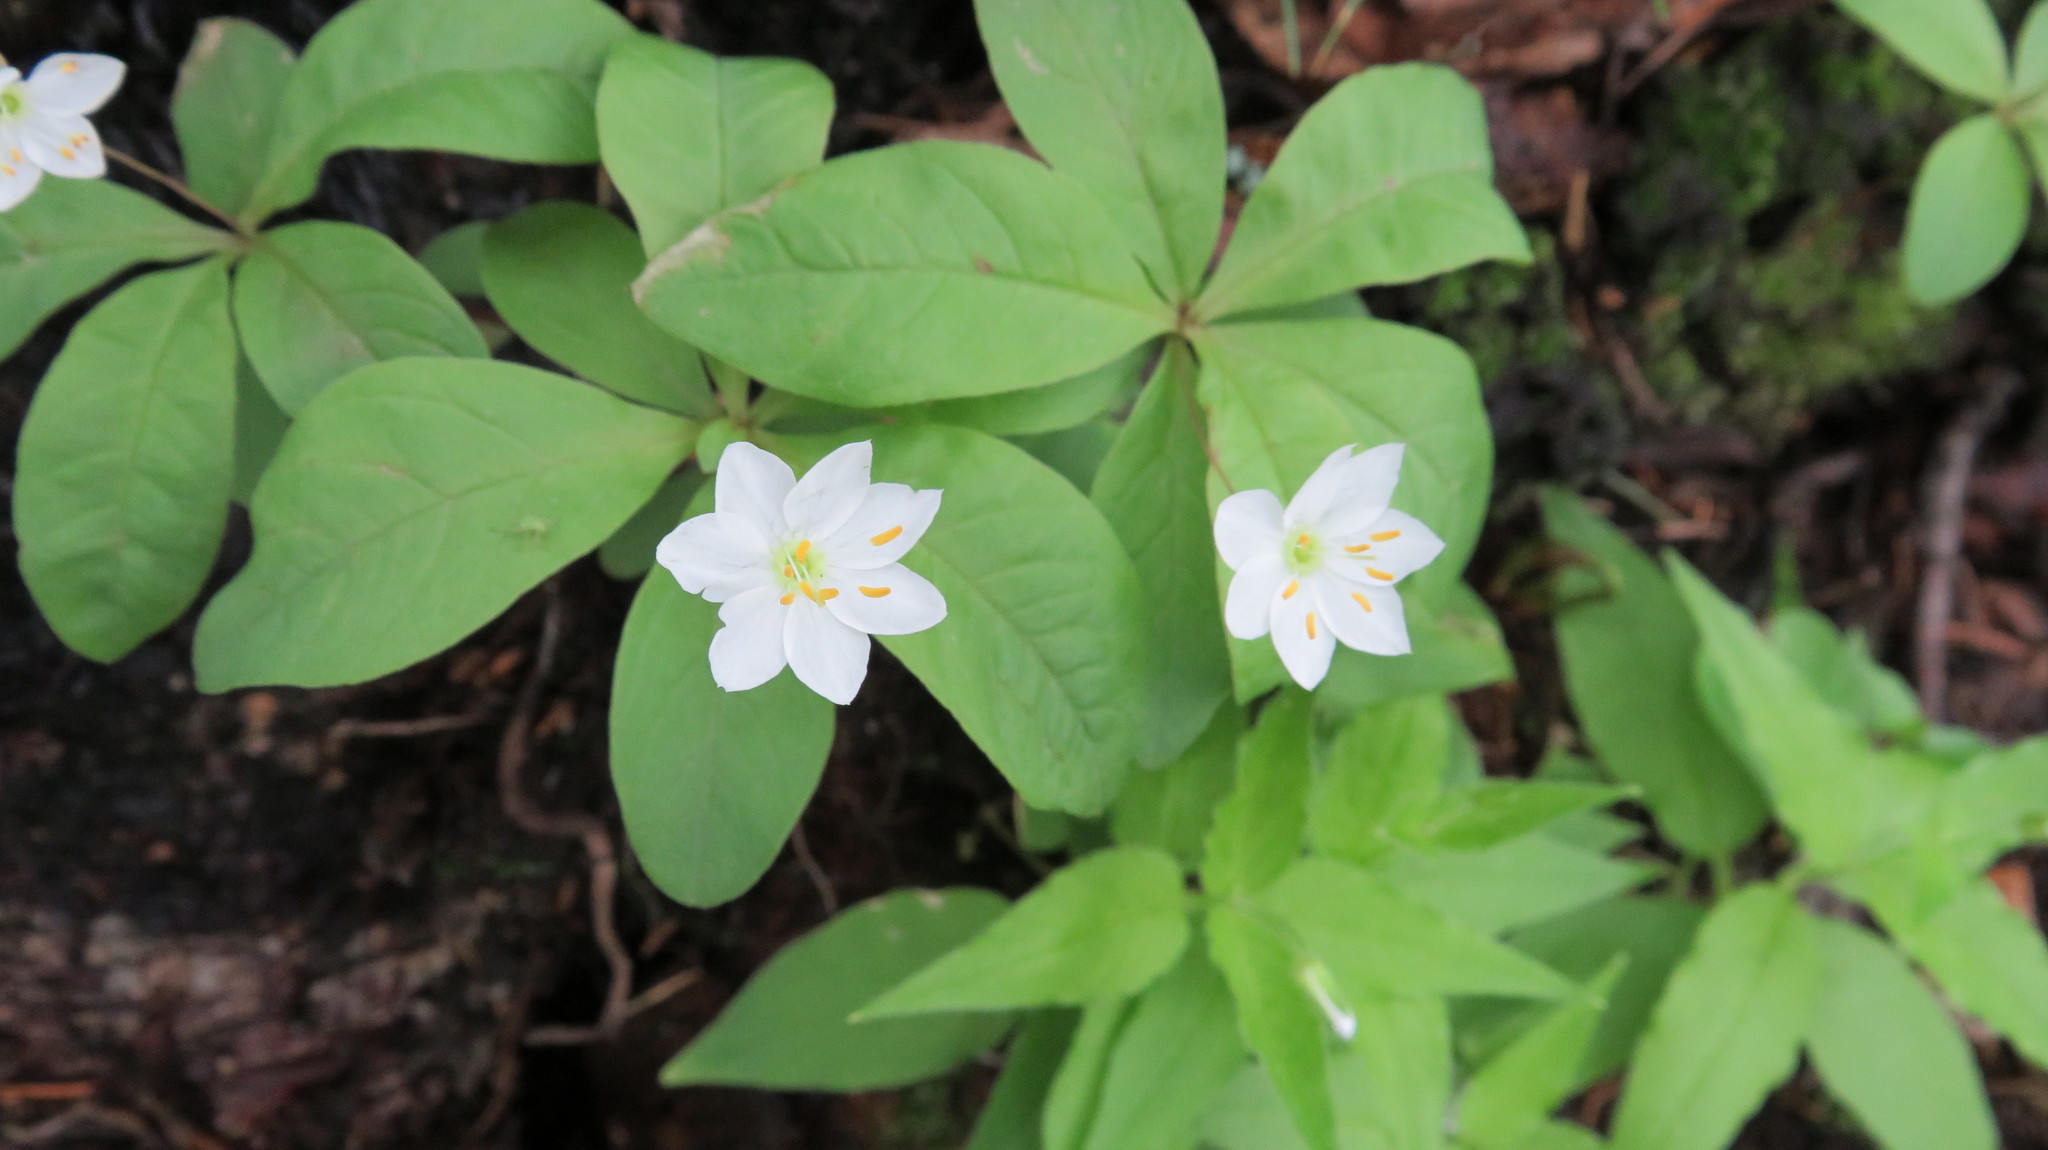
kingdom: Plantae
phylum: Tracheophyta
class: Magnoliopsida
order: Ericales
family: Primulaceae
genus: Lysimachia
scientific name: Lysimachia europaea
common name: Arctic starflower
